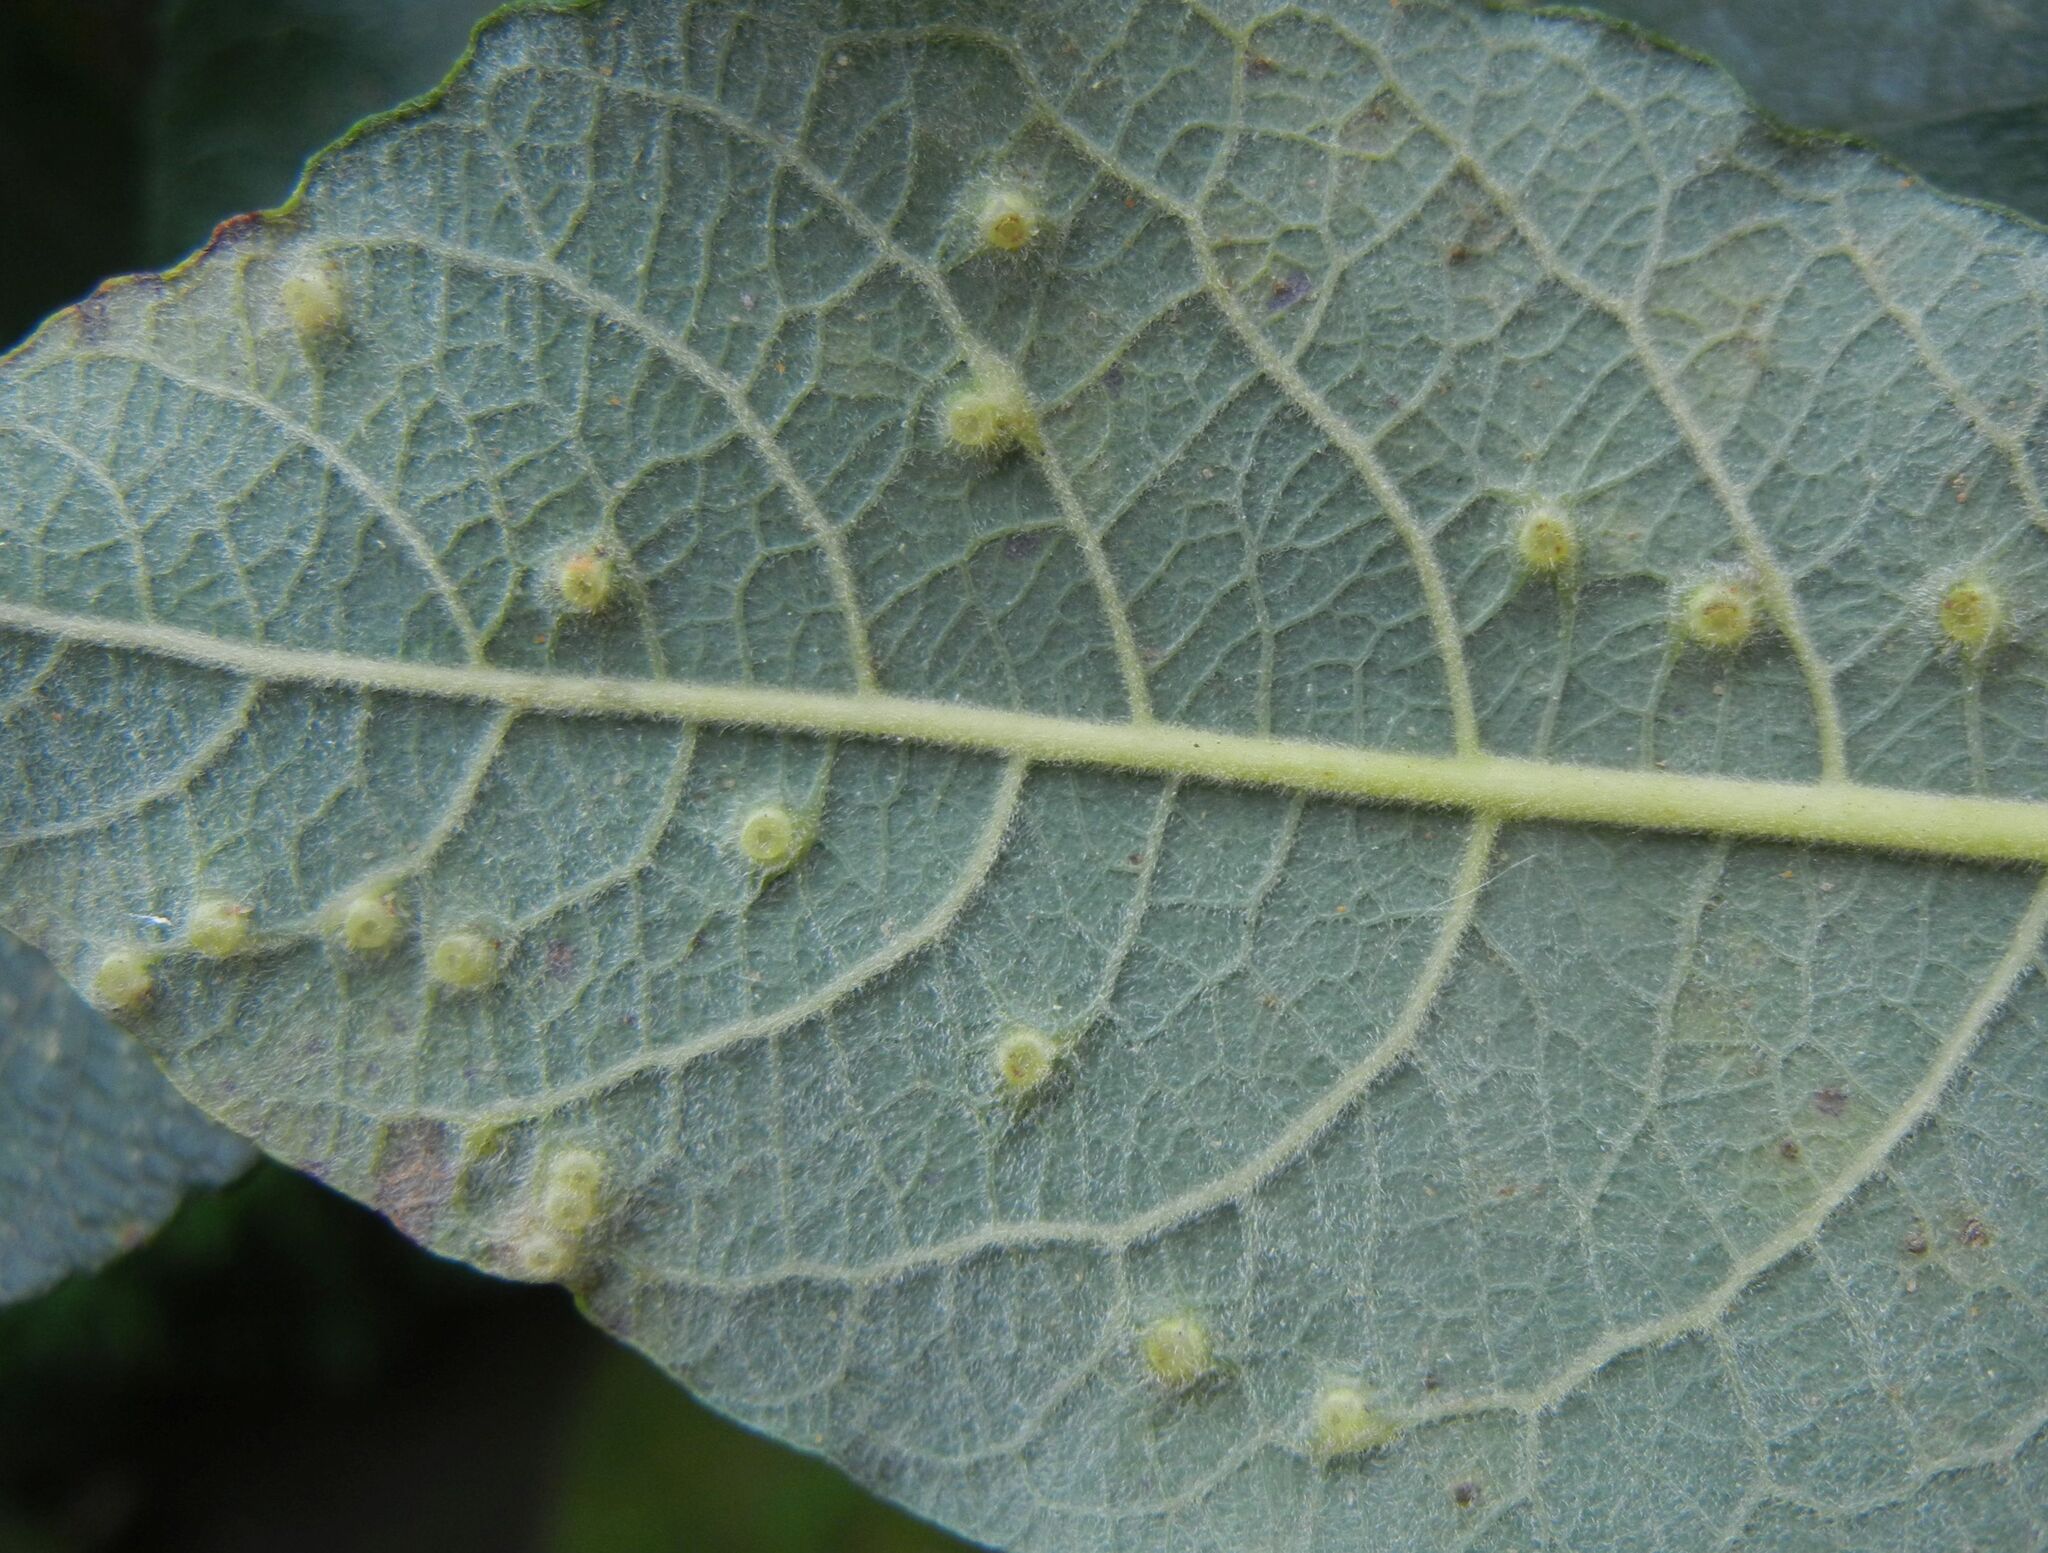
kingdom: Animalia
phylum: Arthropoda
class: Insecta
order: Diptera
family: Cecidomyiidae
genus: Iteomyia
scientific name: Iteomyia capreae
